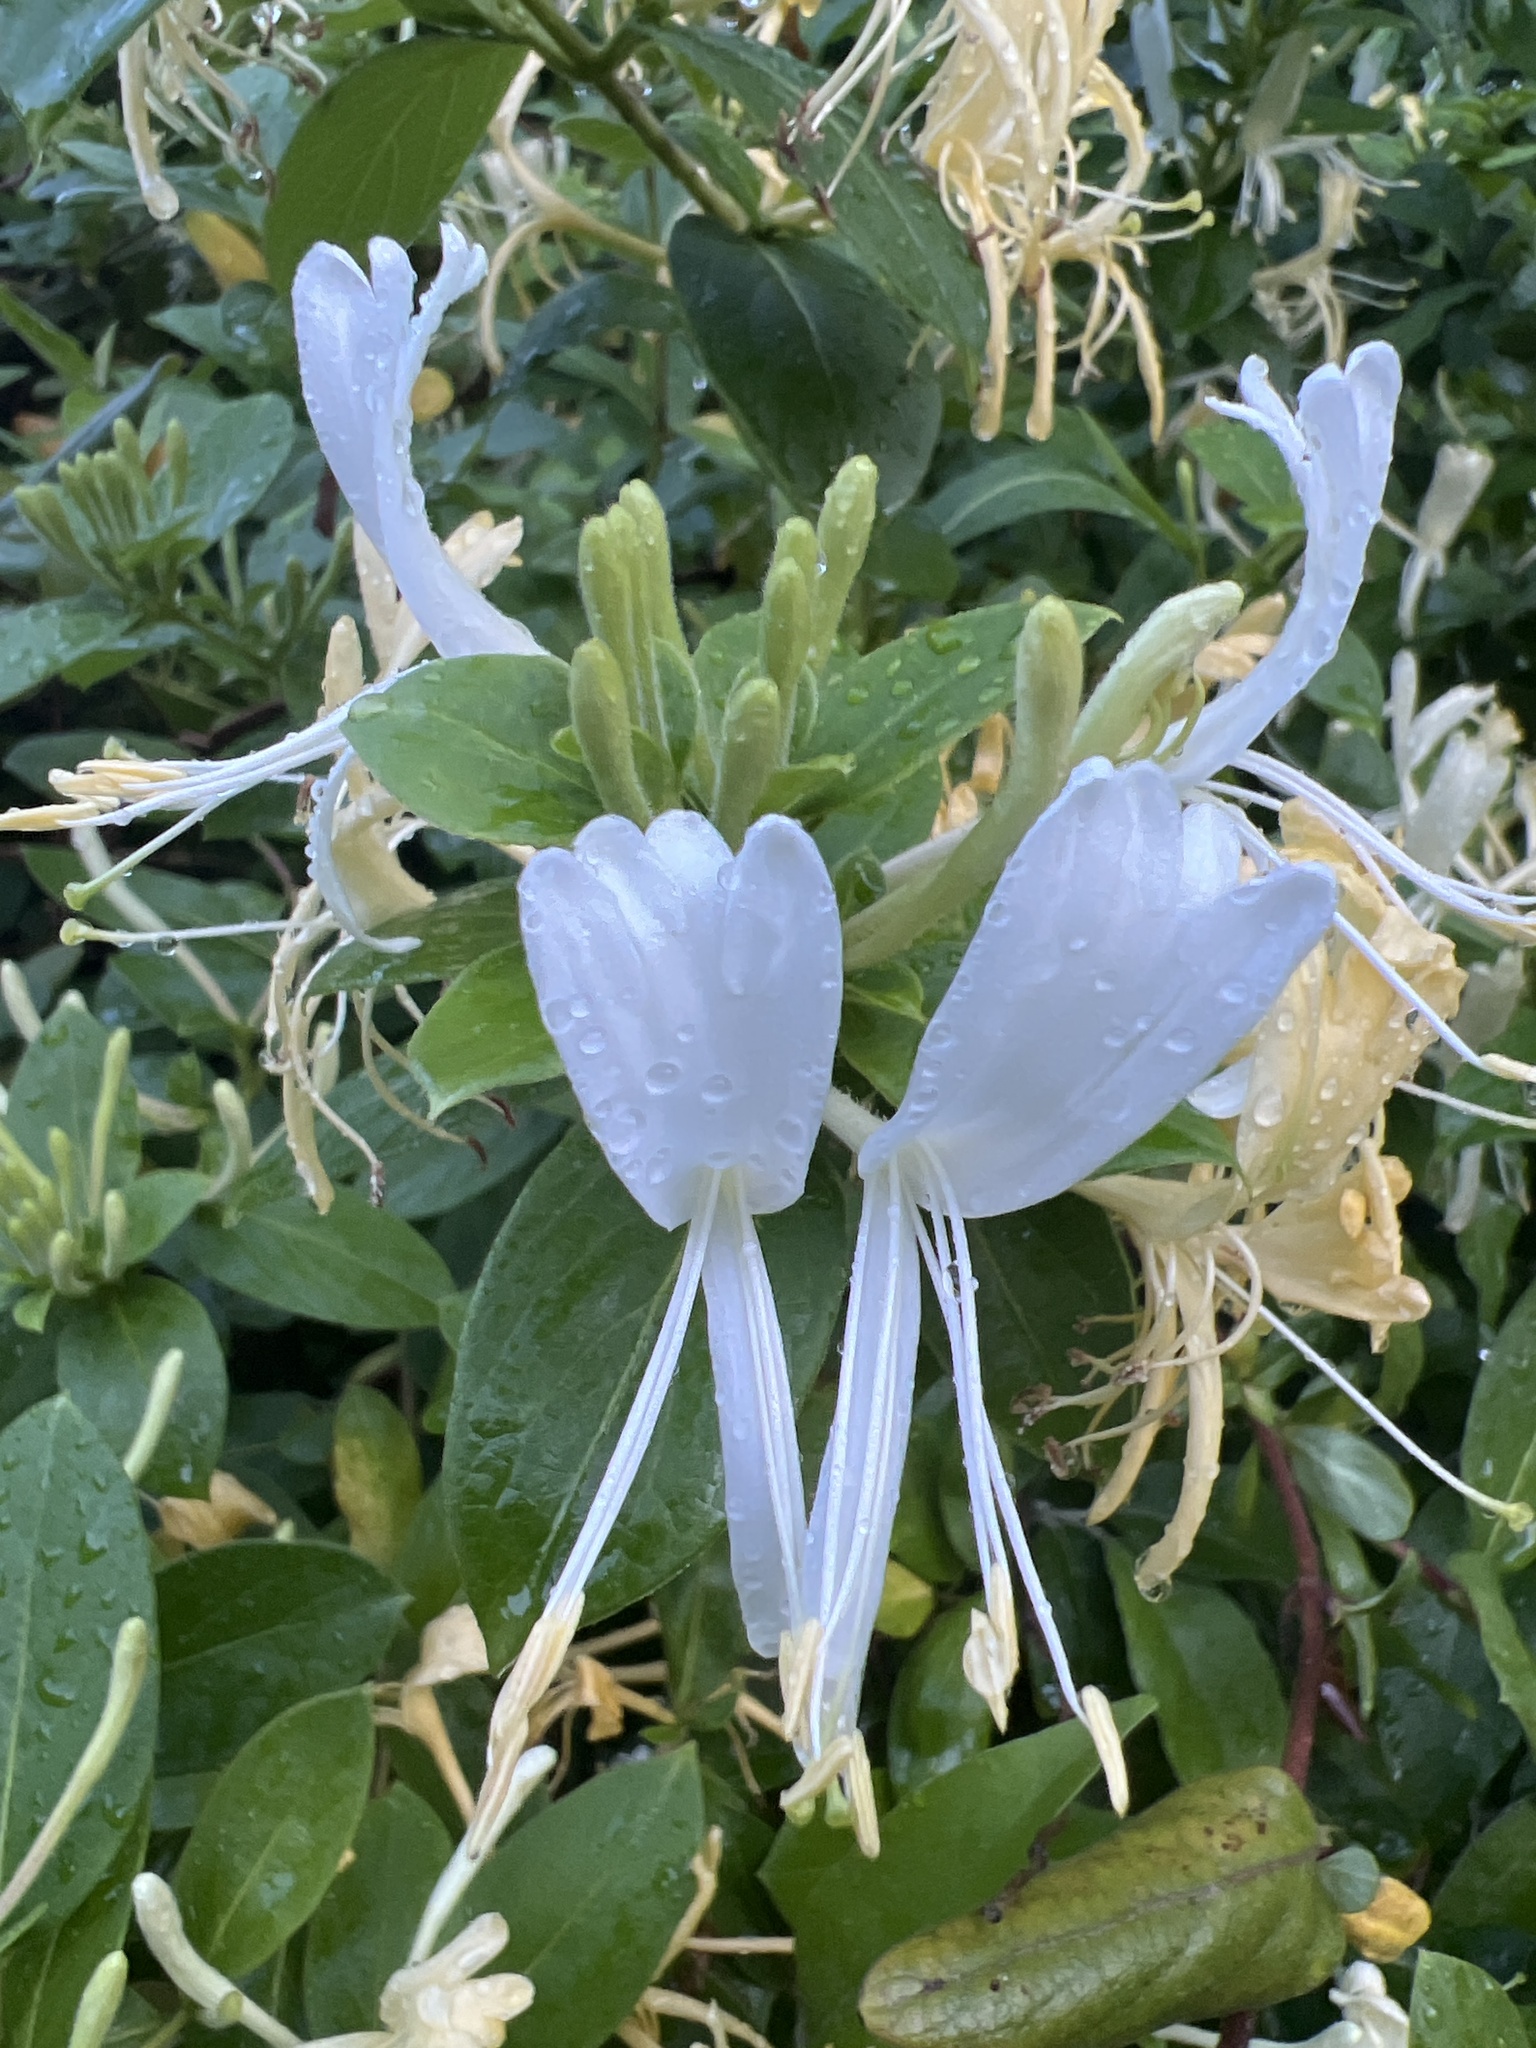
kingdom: Plantae
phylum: Tracheophyta
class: Magnoliopsida
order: Dipsacales
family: Caprifoliaceae
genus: Lonicera
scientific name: Lonicera japonica
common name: Japanese honeysuckle
